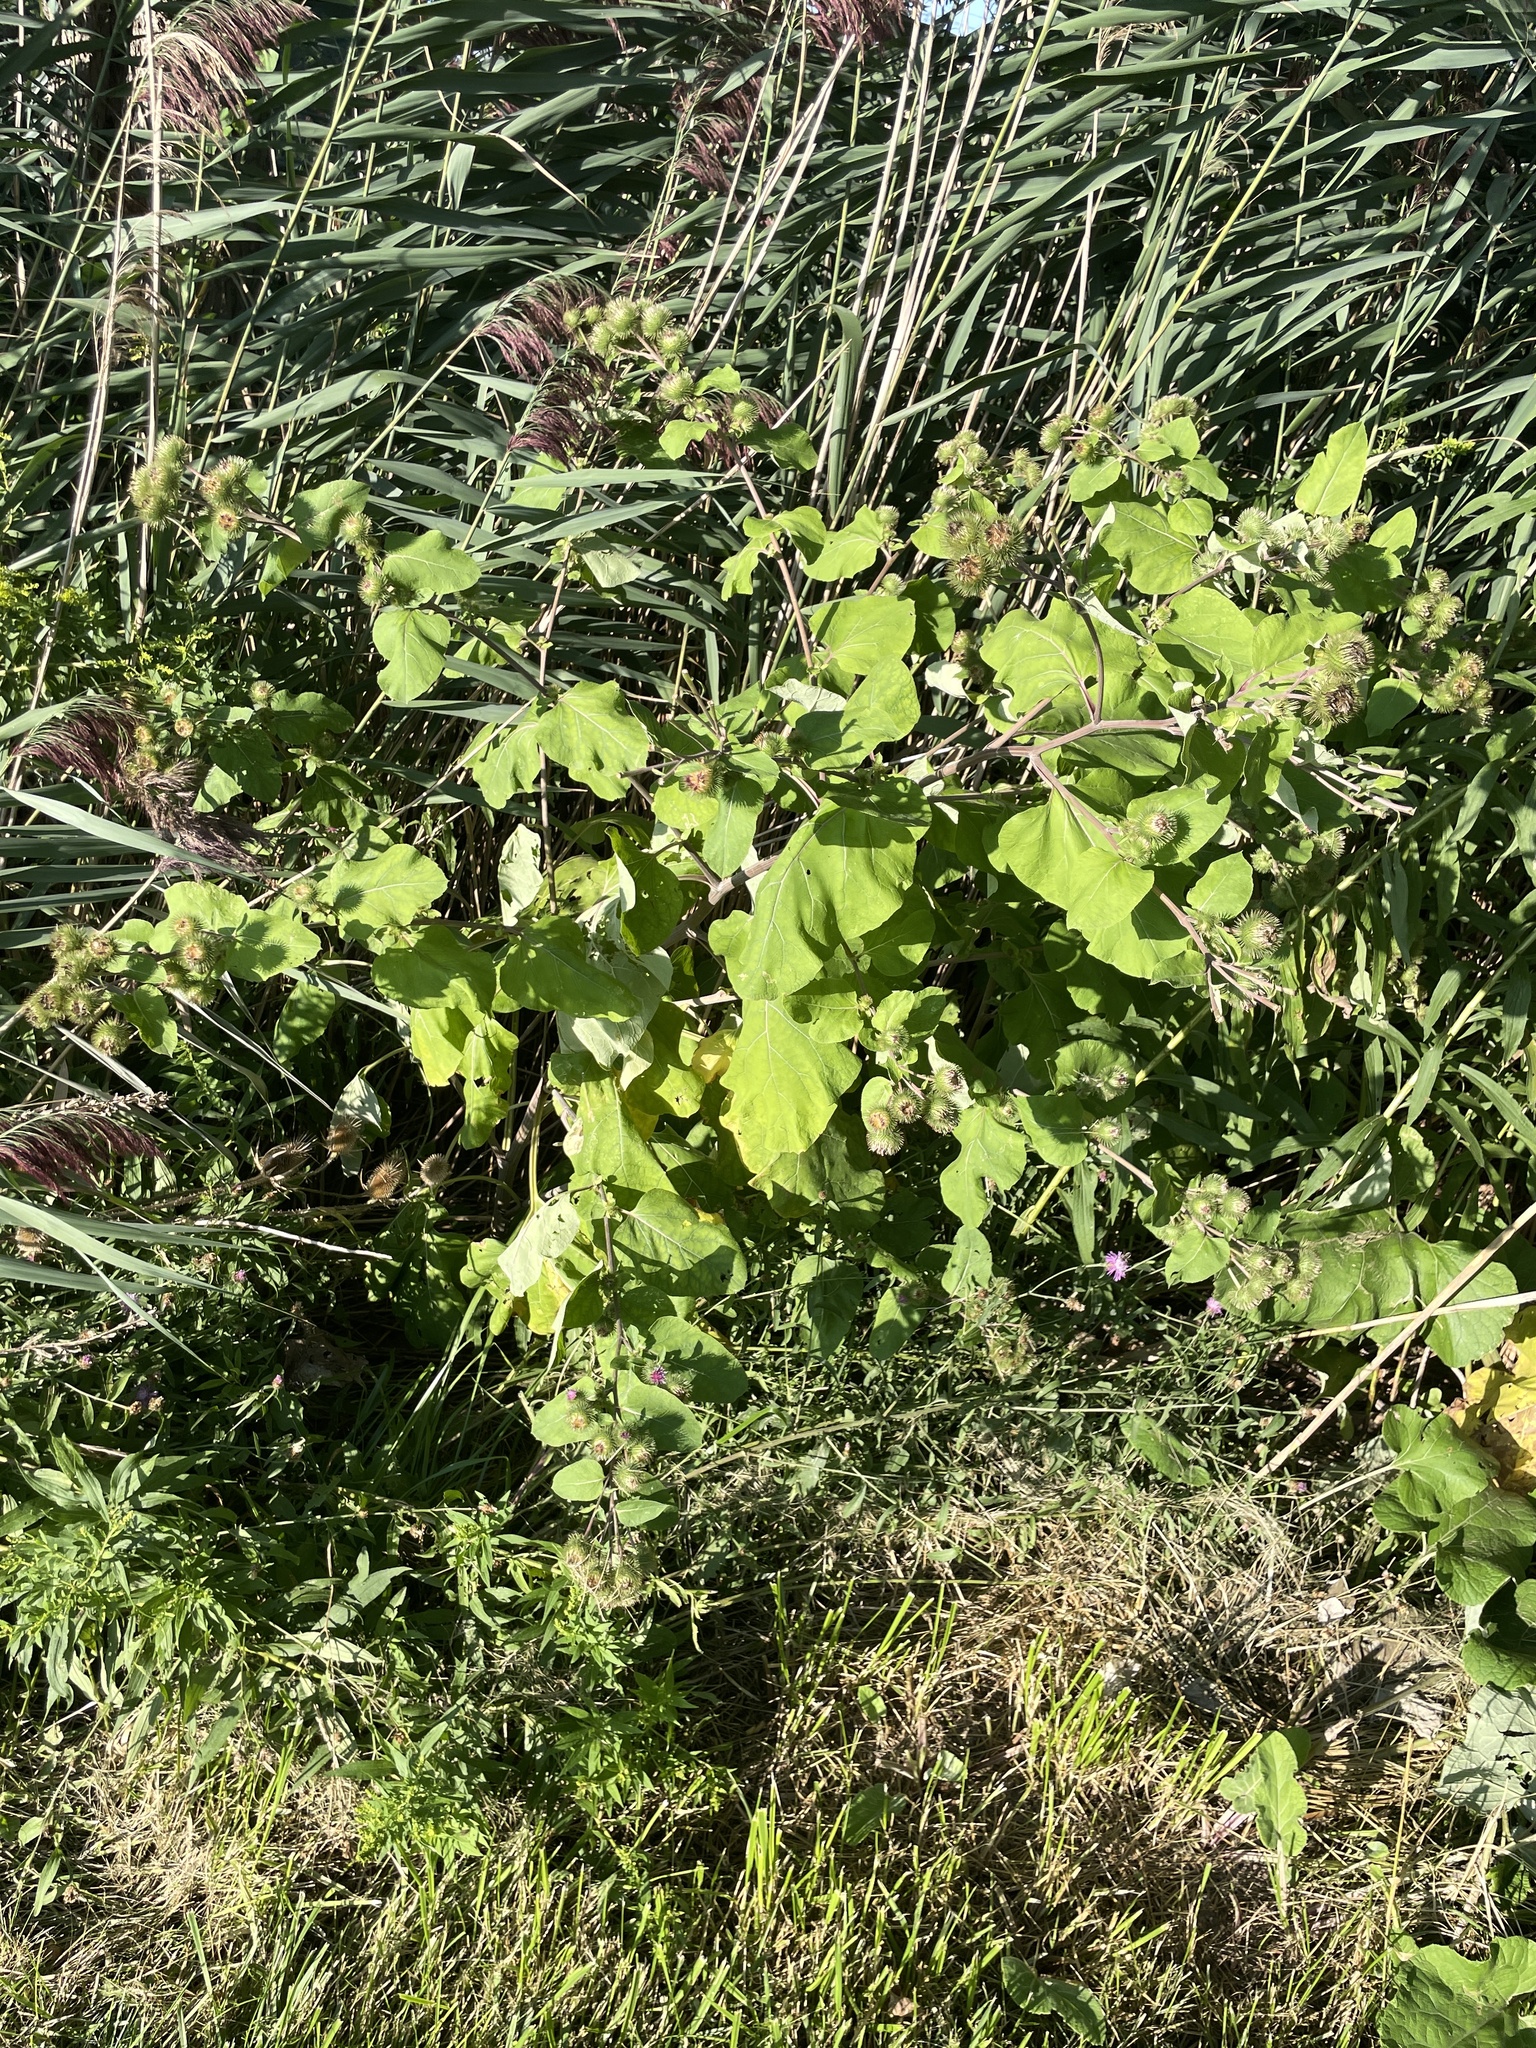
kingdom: Plantae
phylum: Tracheophyta
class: Magnoliopsida
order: Asterales
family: Asteraceae
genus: Arctium
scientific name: Arctium lappa
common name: Greater burdock
